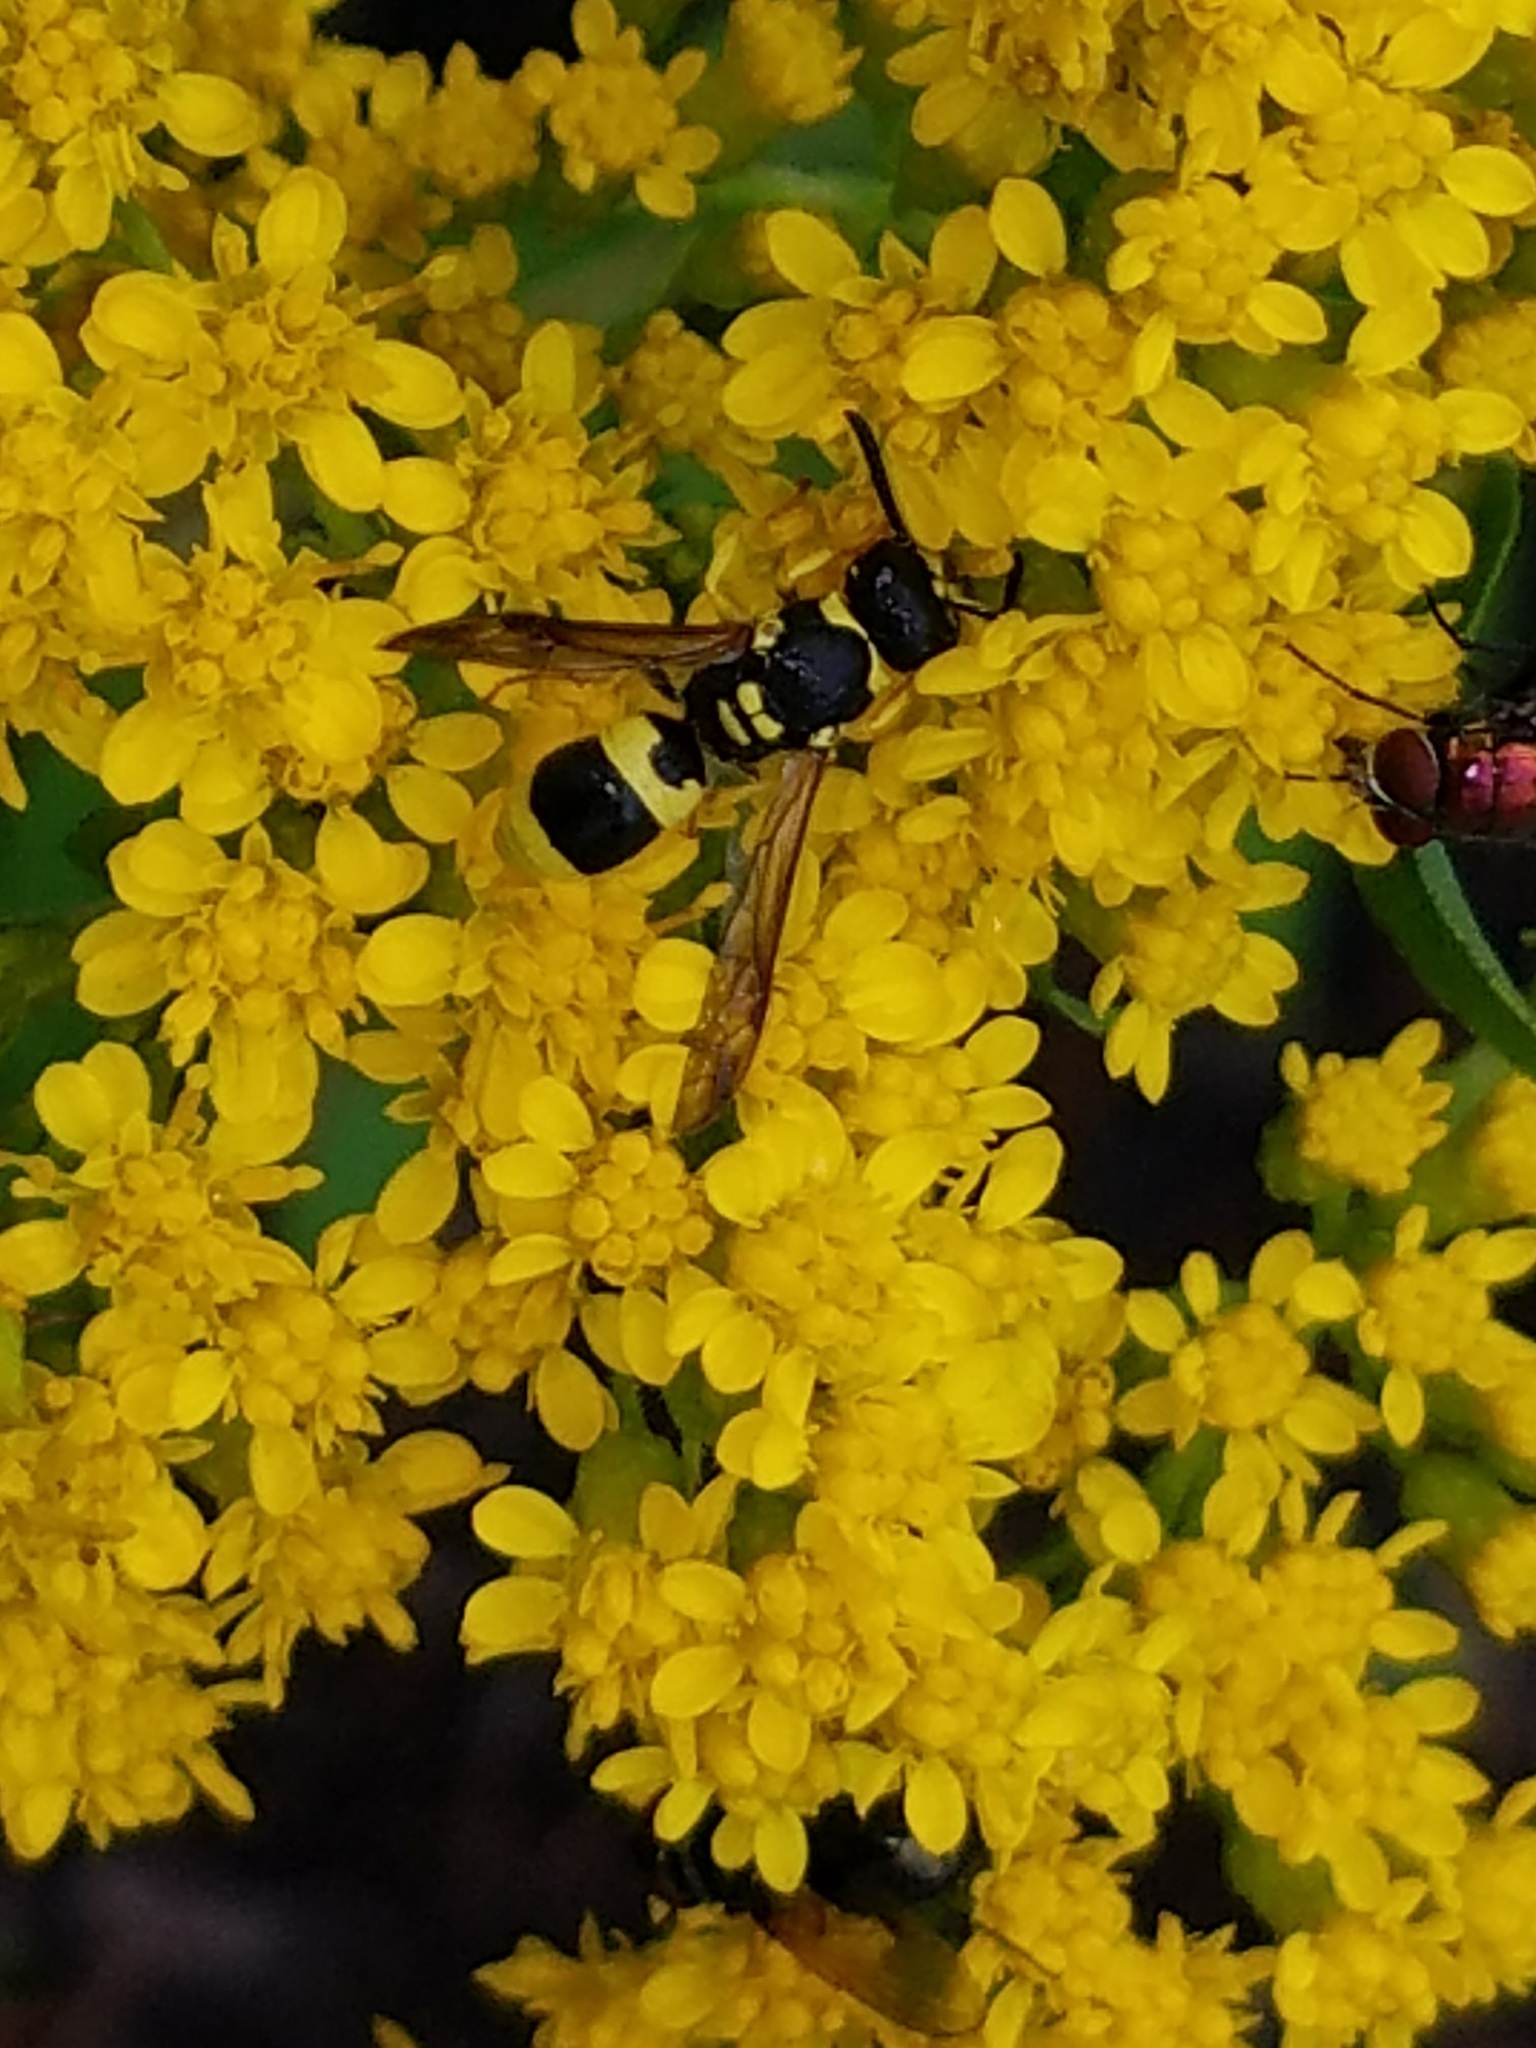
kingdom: Animalia
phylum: Arthropoda
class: Insecta
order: Hymenoptera
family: Vespidae
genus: Ancistrocerus
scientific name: Ancistrocerus gazella
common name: European tube wasp
